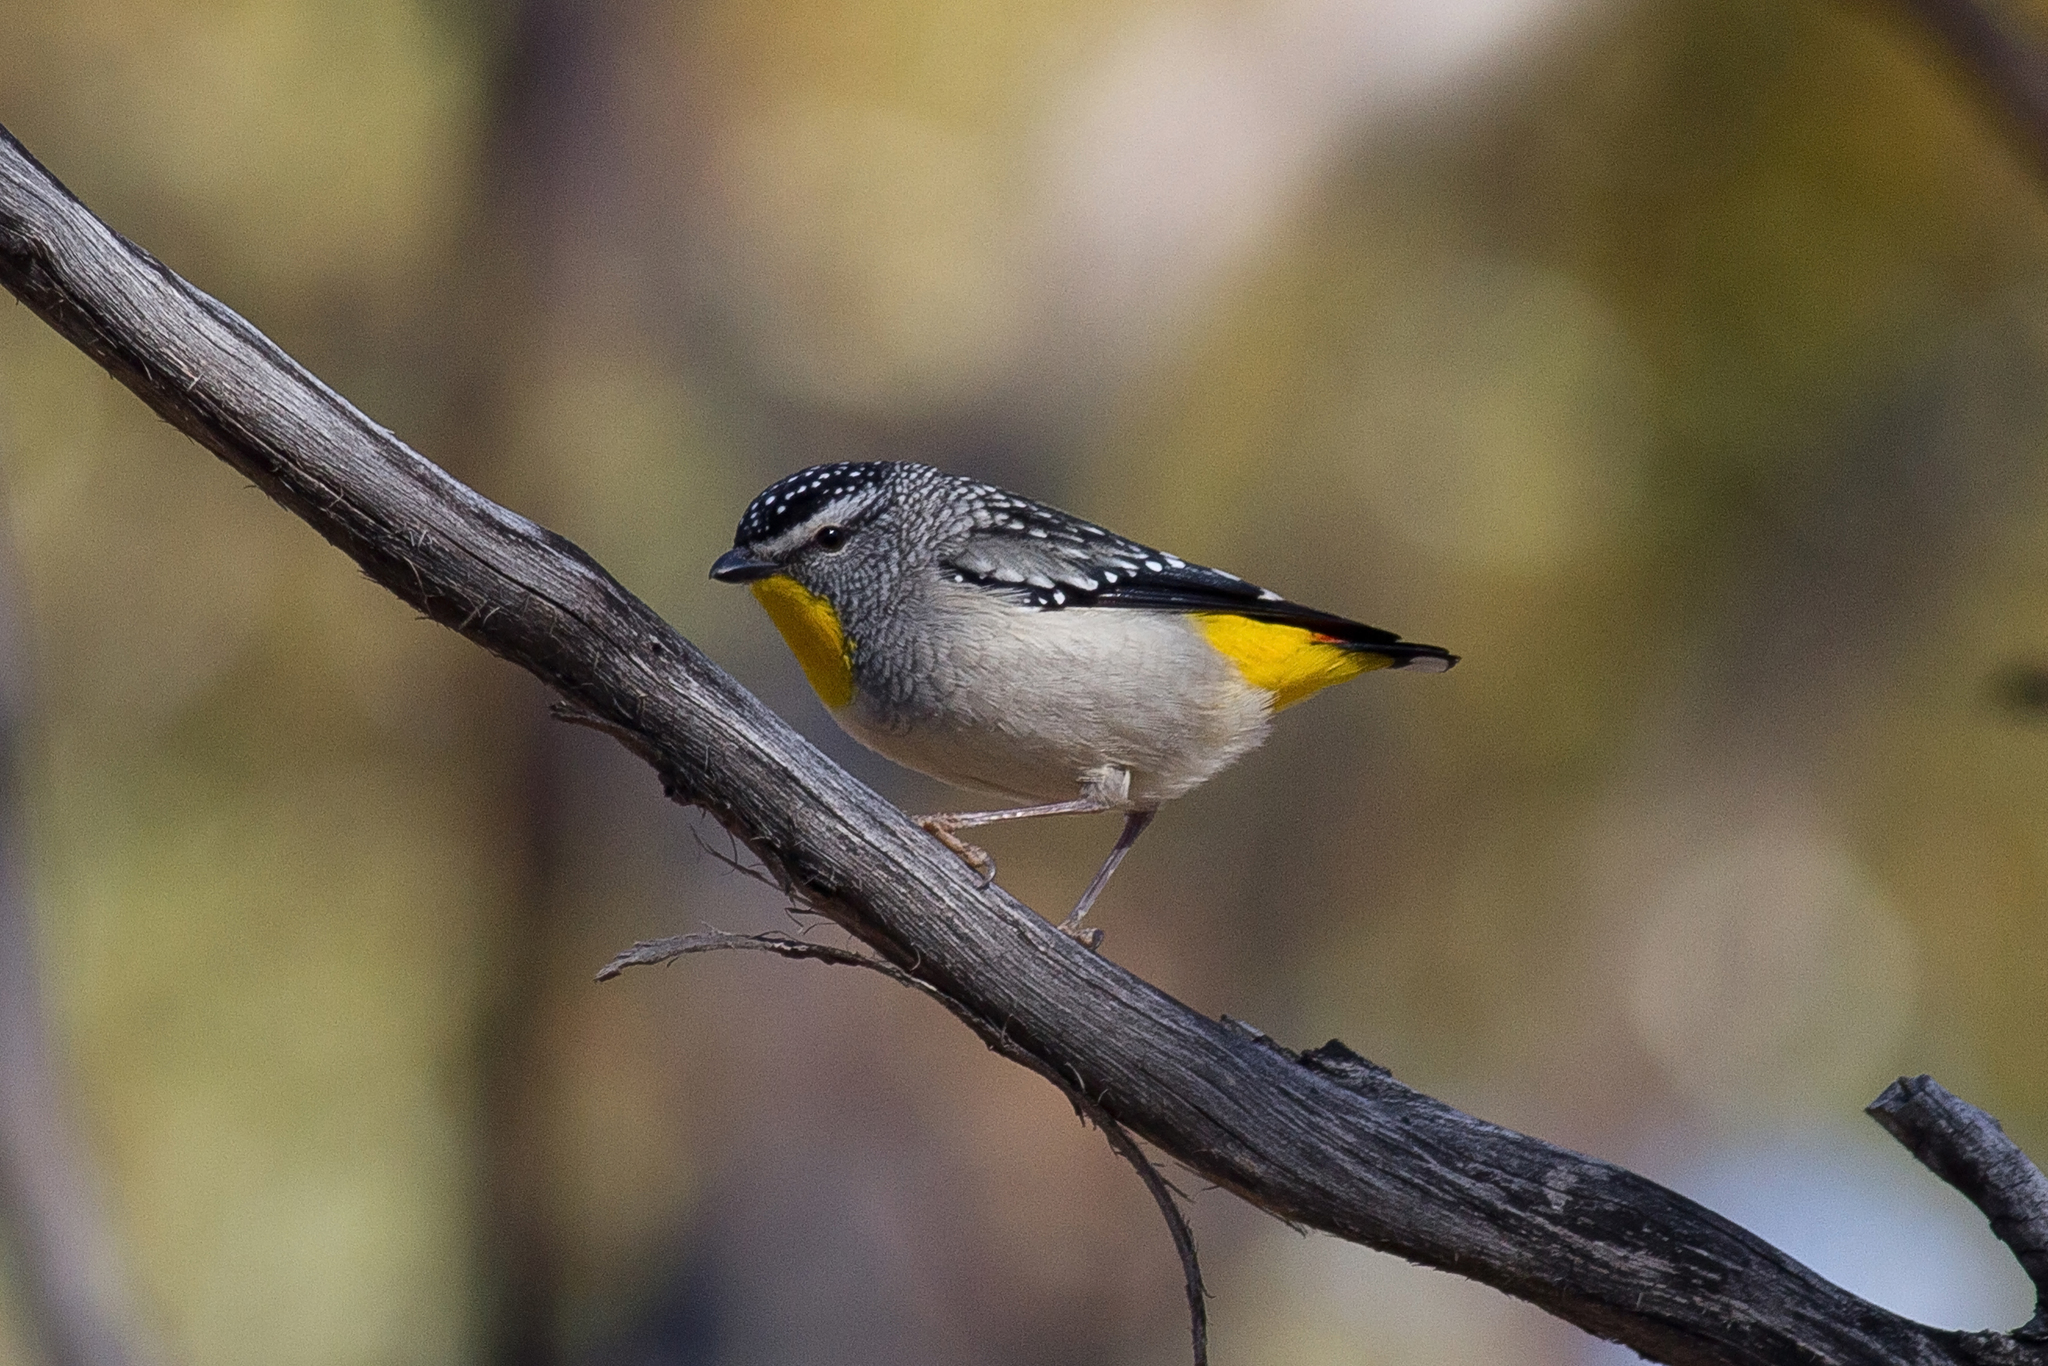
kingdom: Animalia
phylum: Chordata
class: Aves
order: Passeriformes
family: Pardalotidae
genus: Pardalotus
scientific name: Pardalotus punctatus
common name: Spotted pardalote
